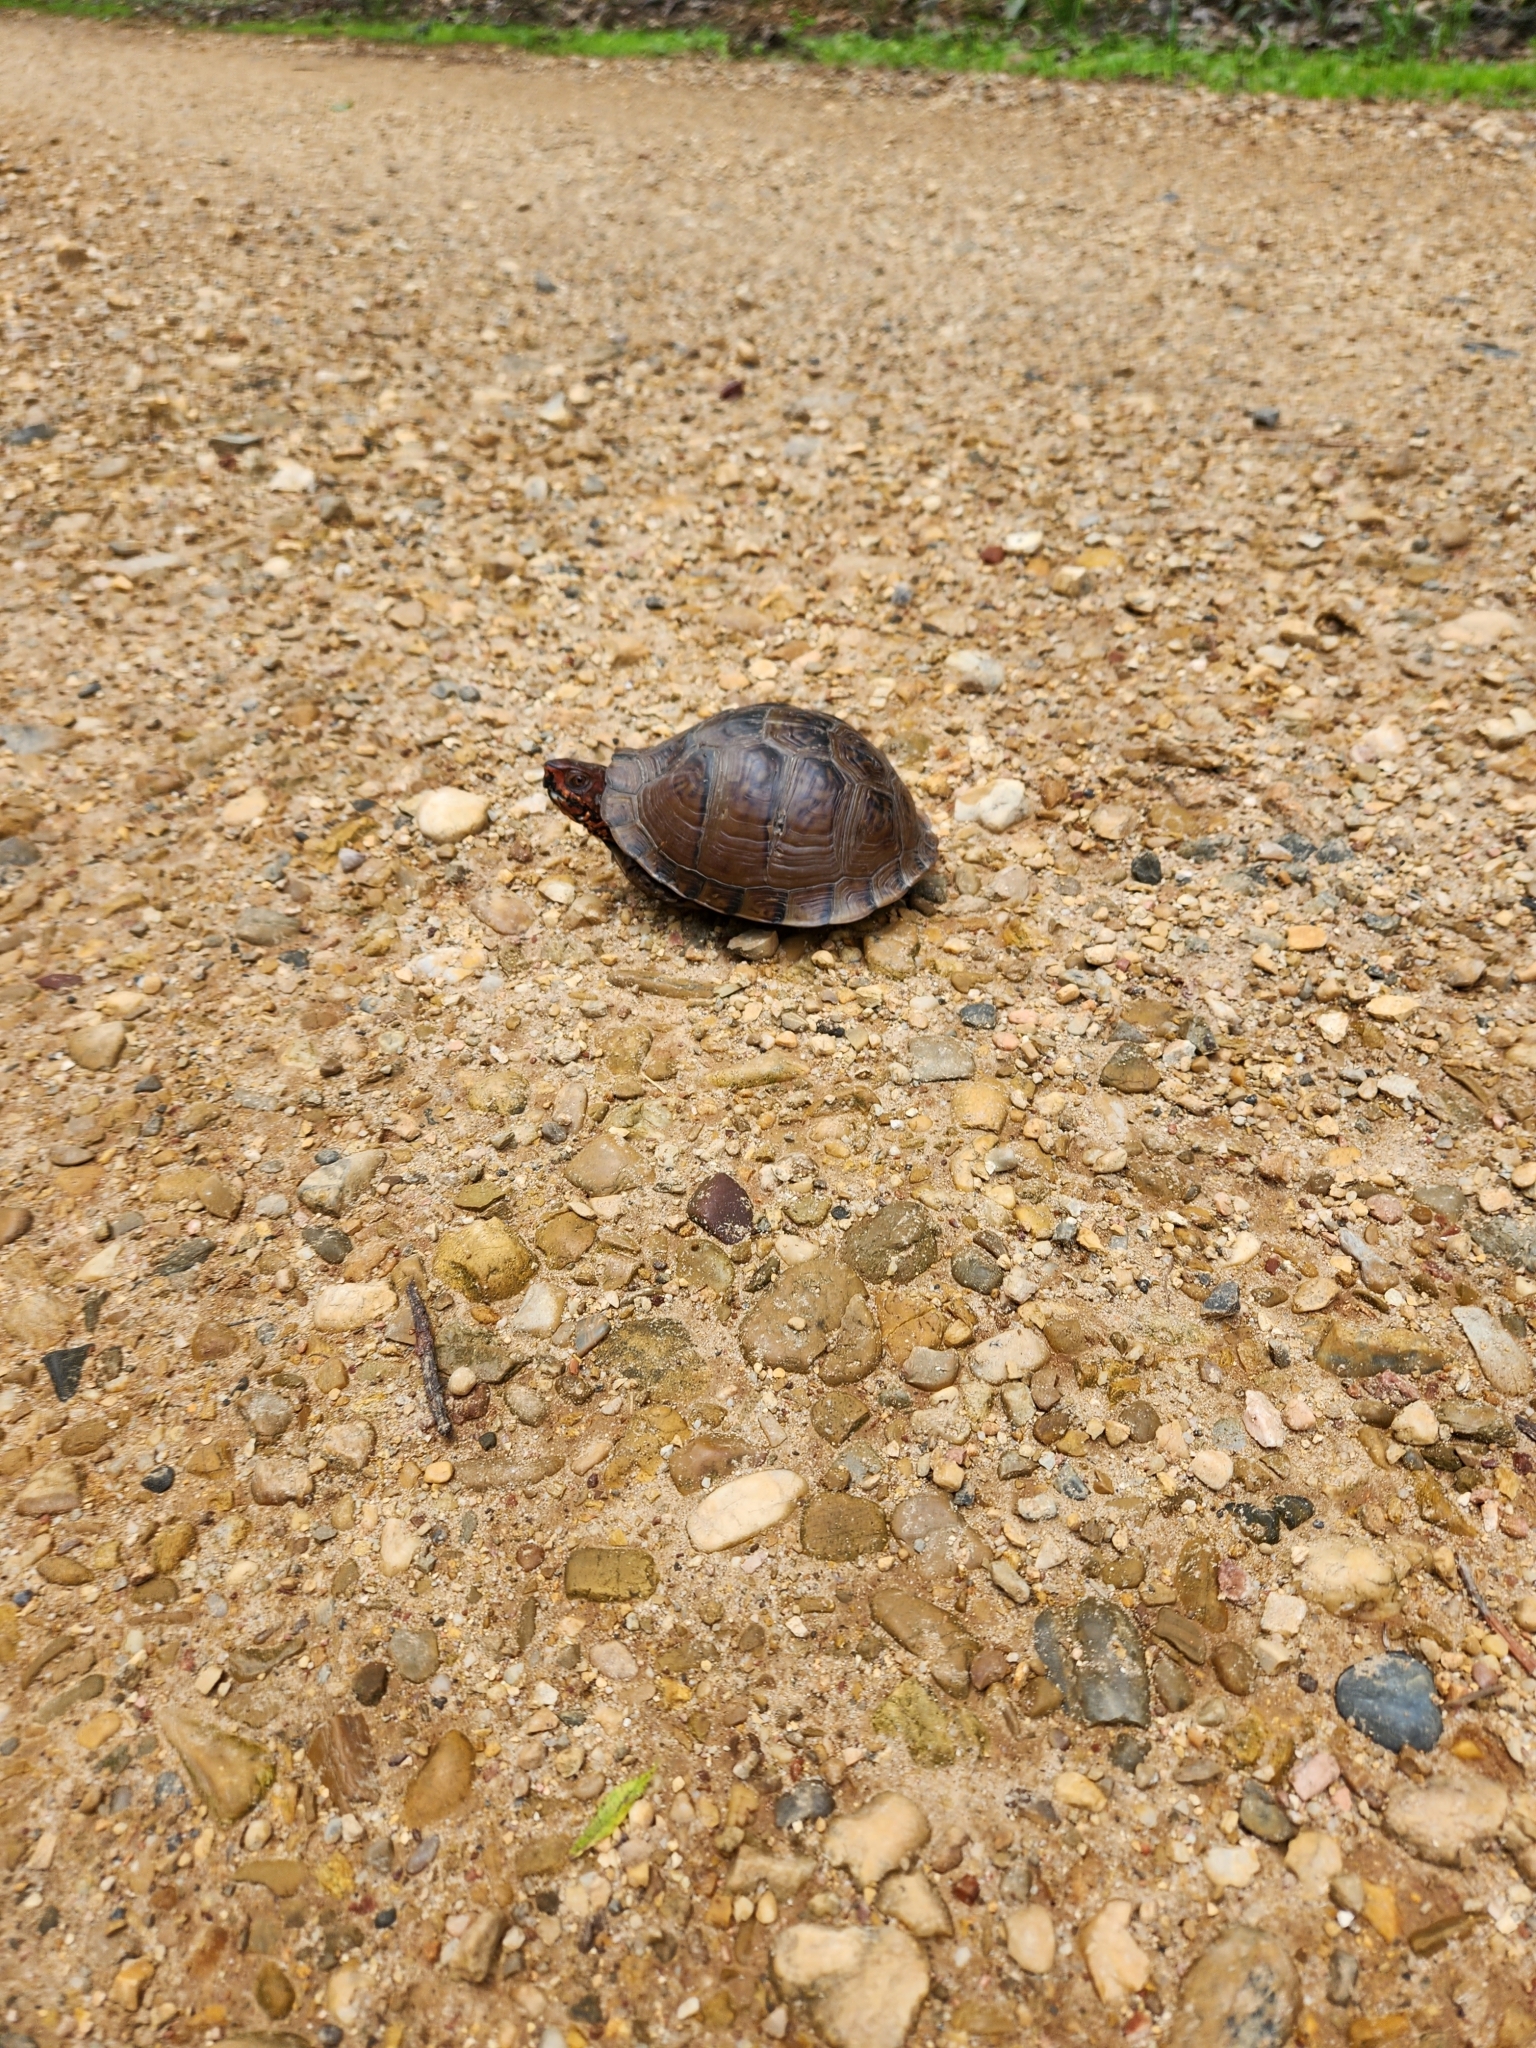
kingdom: Animalia
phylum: Chordata
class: Testudines
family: Emydidae
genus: Terrapene
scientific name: Terrapene carolina
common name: Common box turtle
